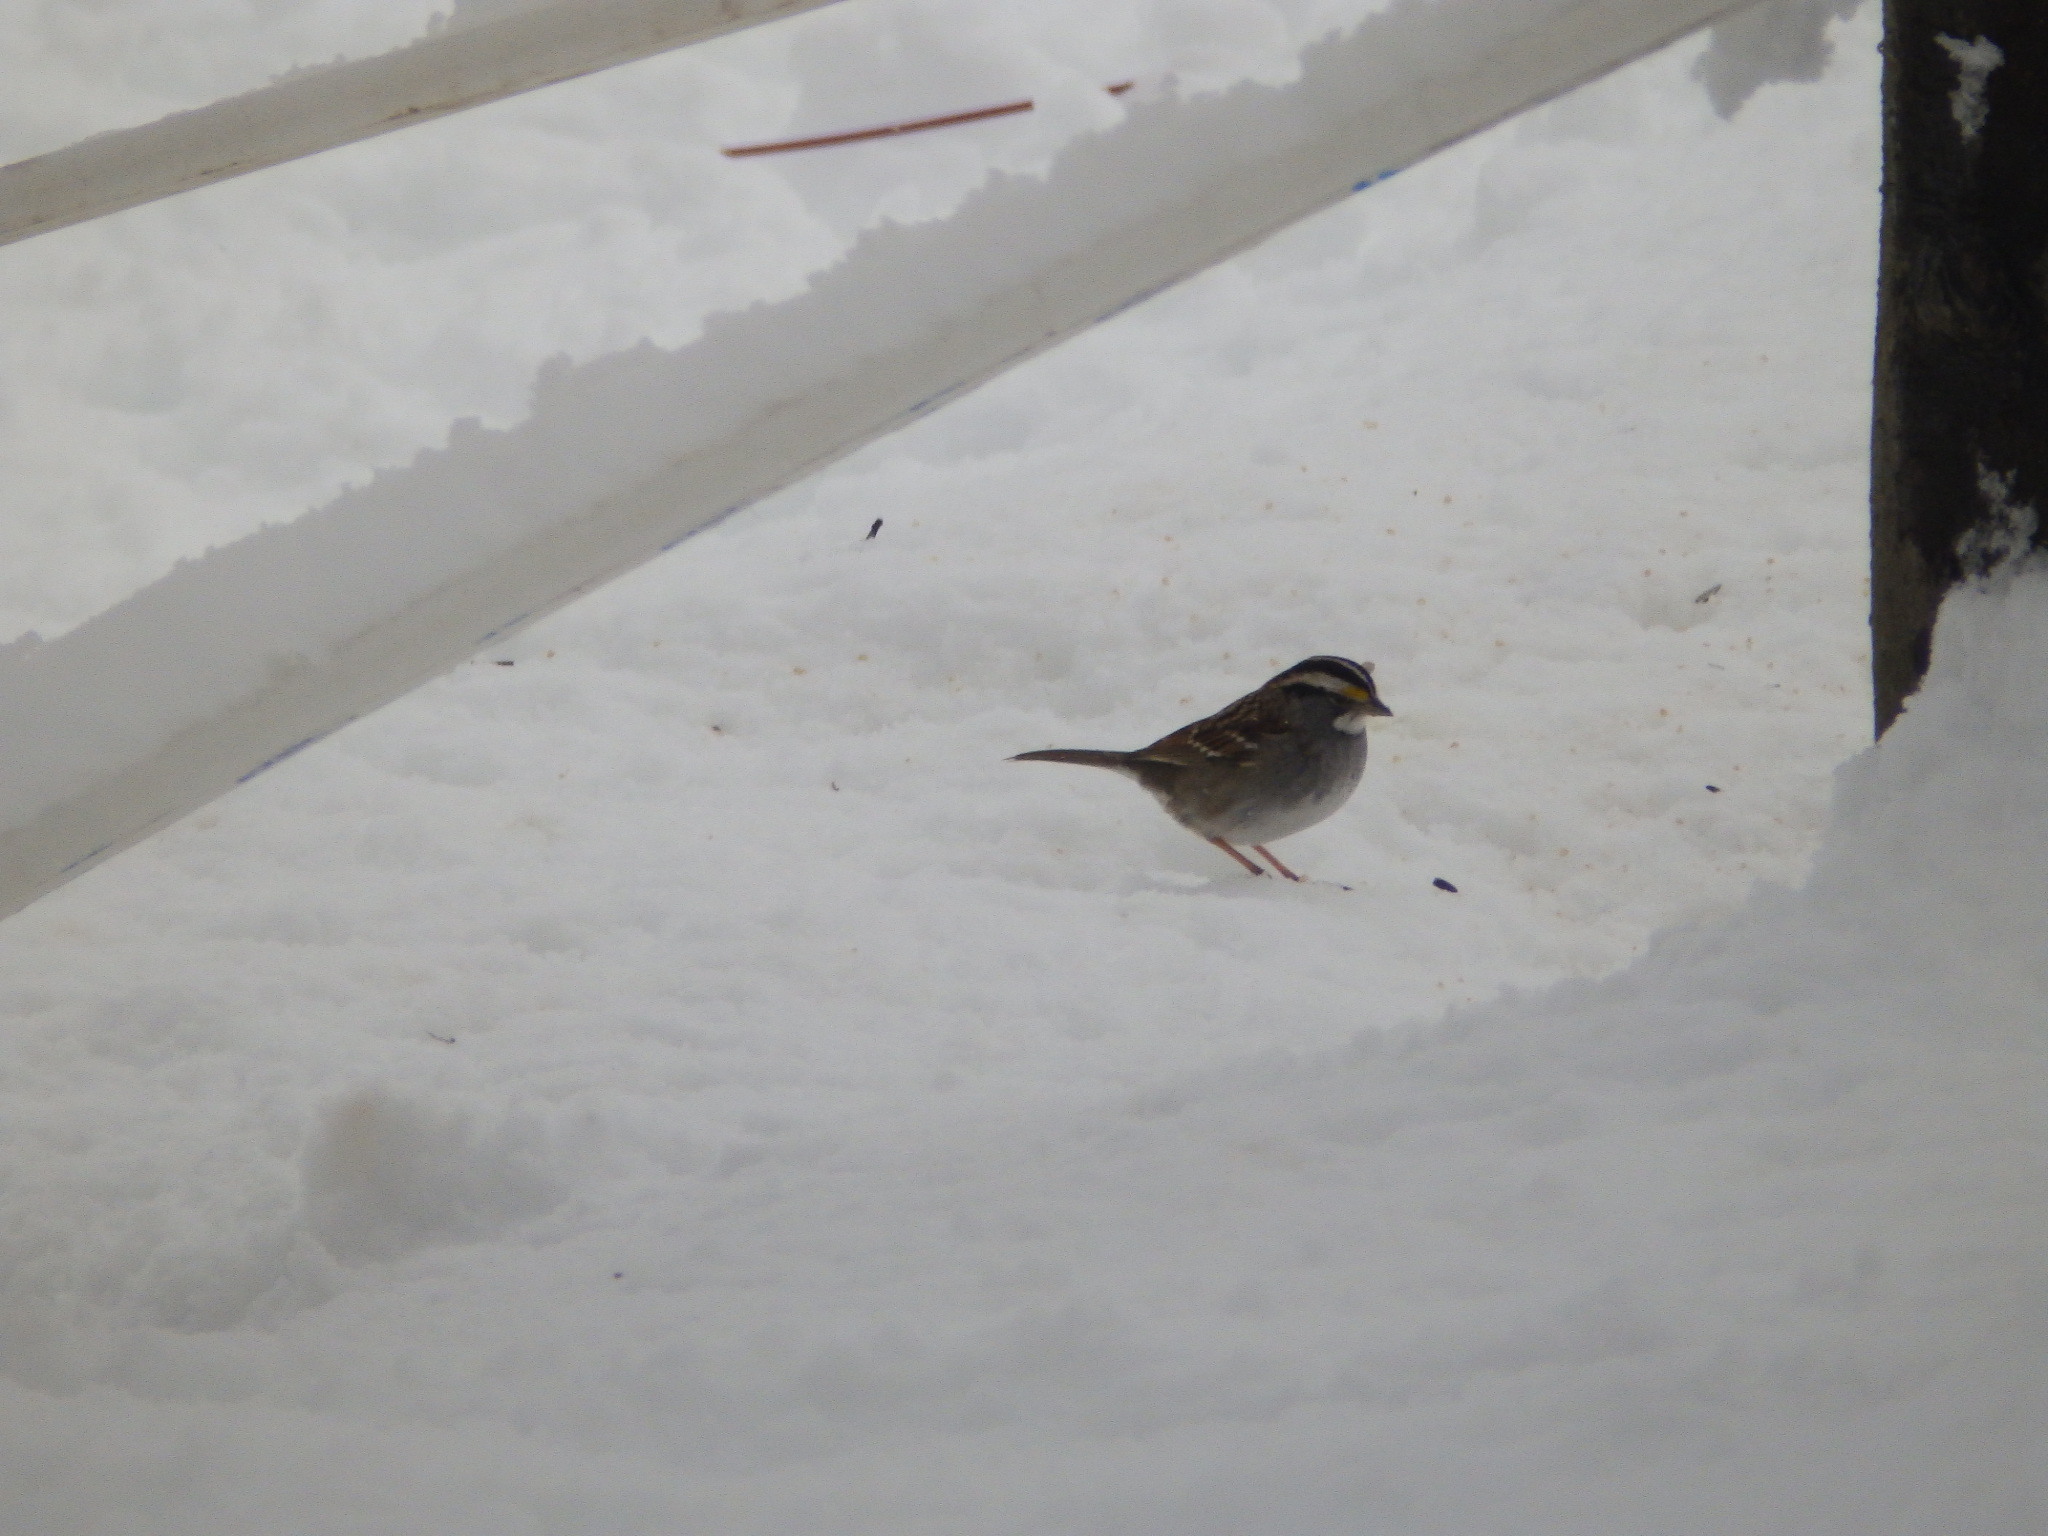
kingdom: Animalia
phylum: Chordata
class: Aves
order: Passeriformes
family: Passerellidae
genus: Zonotrichia
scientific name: Zonotrichia albicollis
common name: White-throated sparrow
